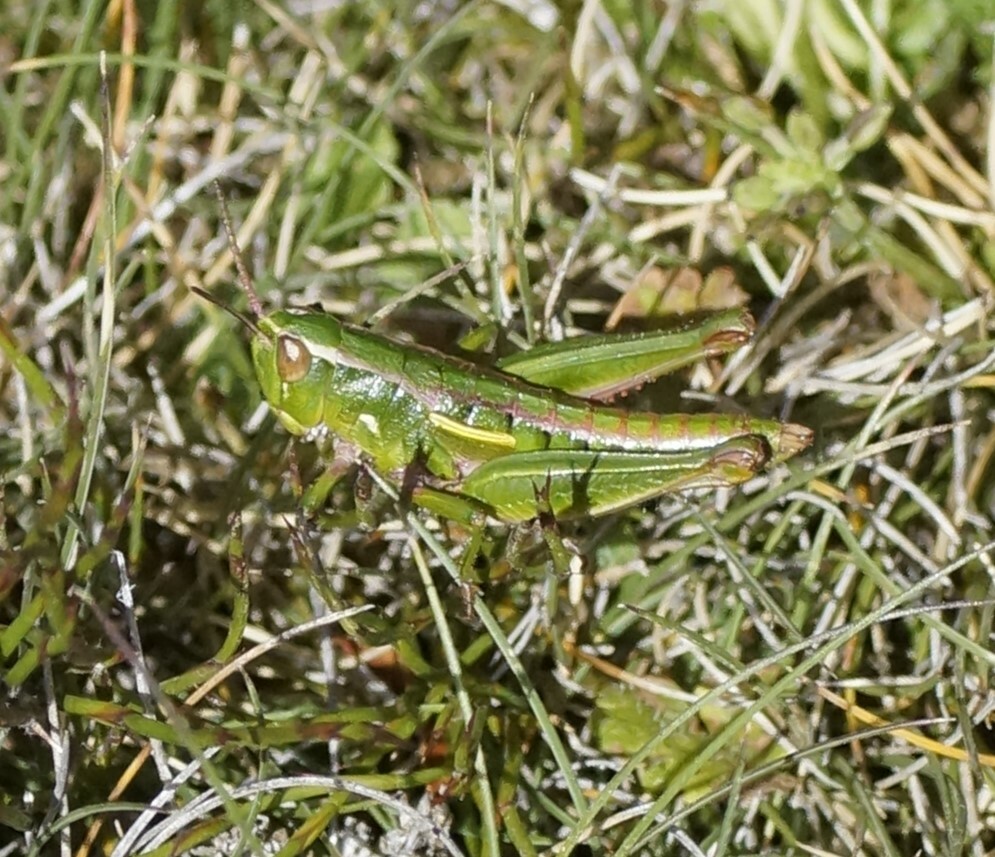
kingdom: Animalia
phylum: Arthropoda
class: Insecta
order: Orthoptera
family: Acrididae
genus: Russalpia
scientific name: Russalpia albertisi
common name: Tassie hopper
